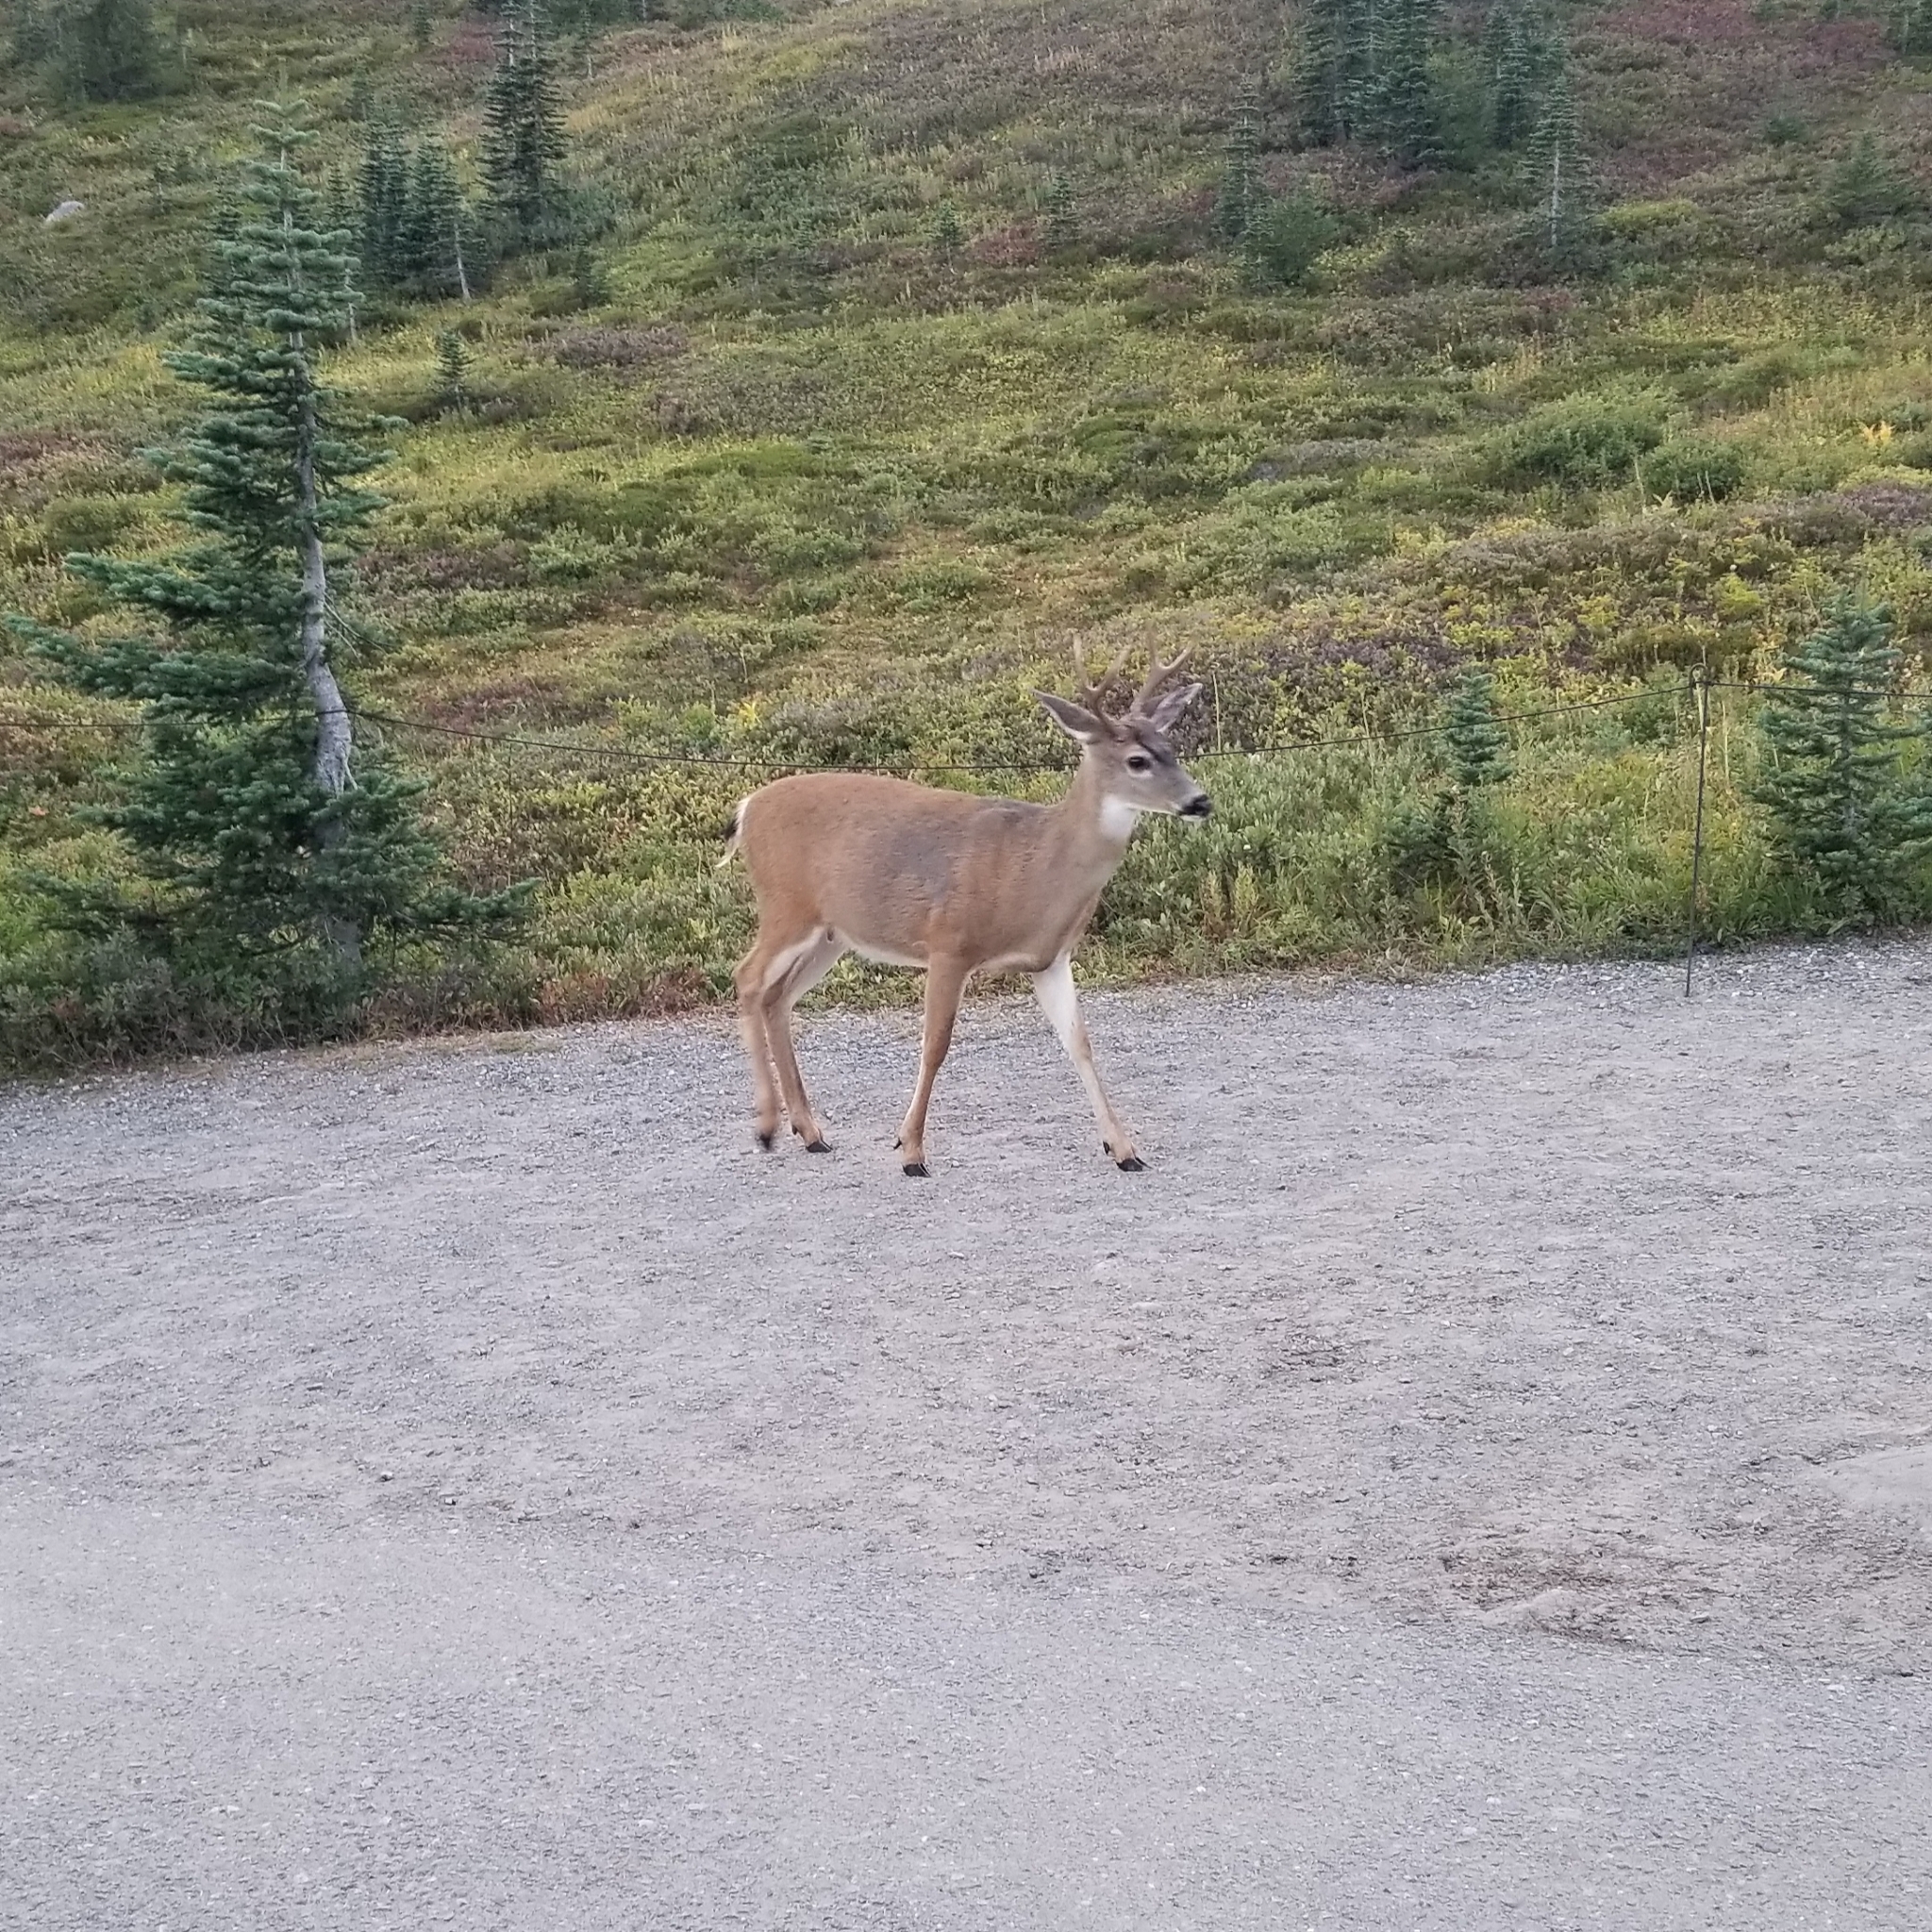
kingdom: Animalia
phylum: Chordata
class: Mammalia
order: Artiodactyla
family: Cervidae
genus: Odocoileus
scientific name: Odocoileus hemionus
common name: Mule deer
